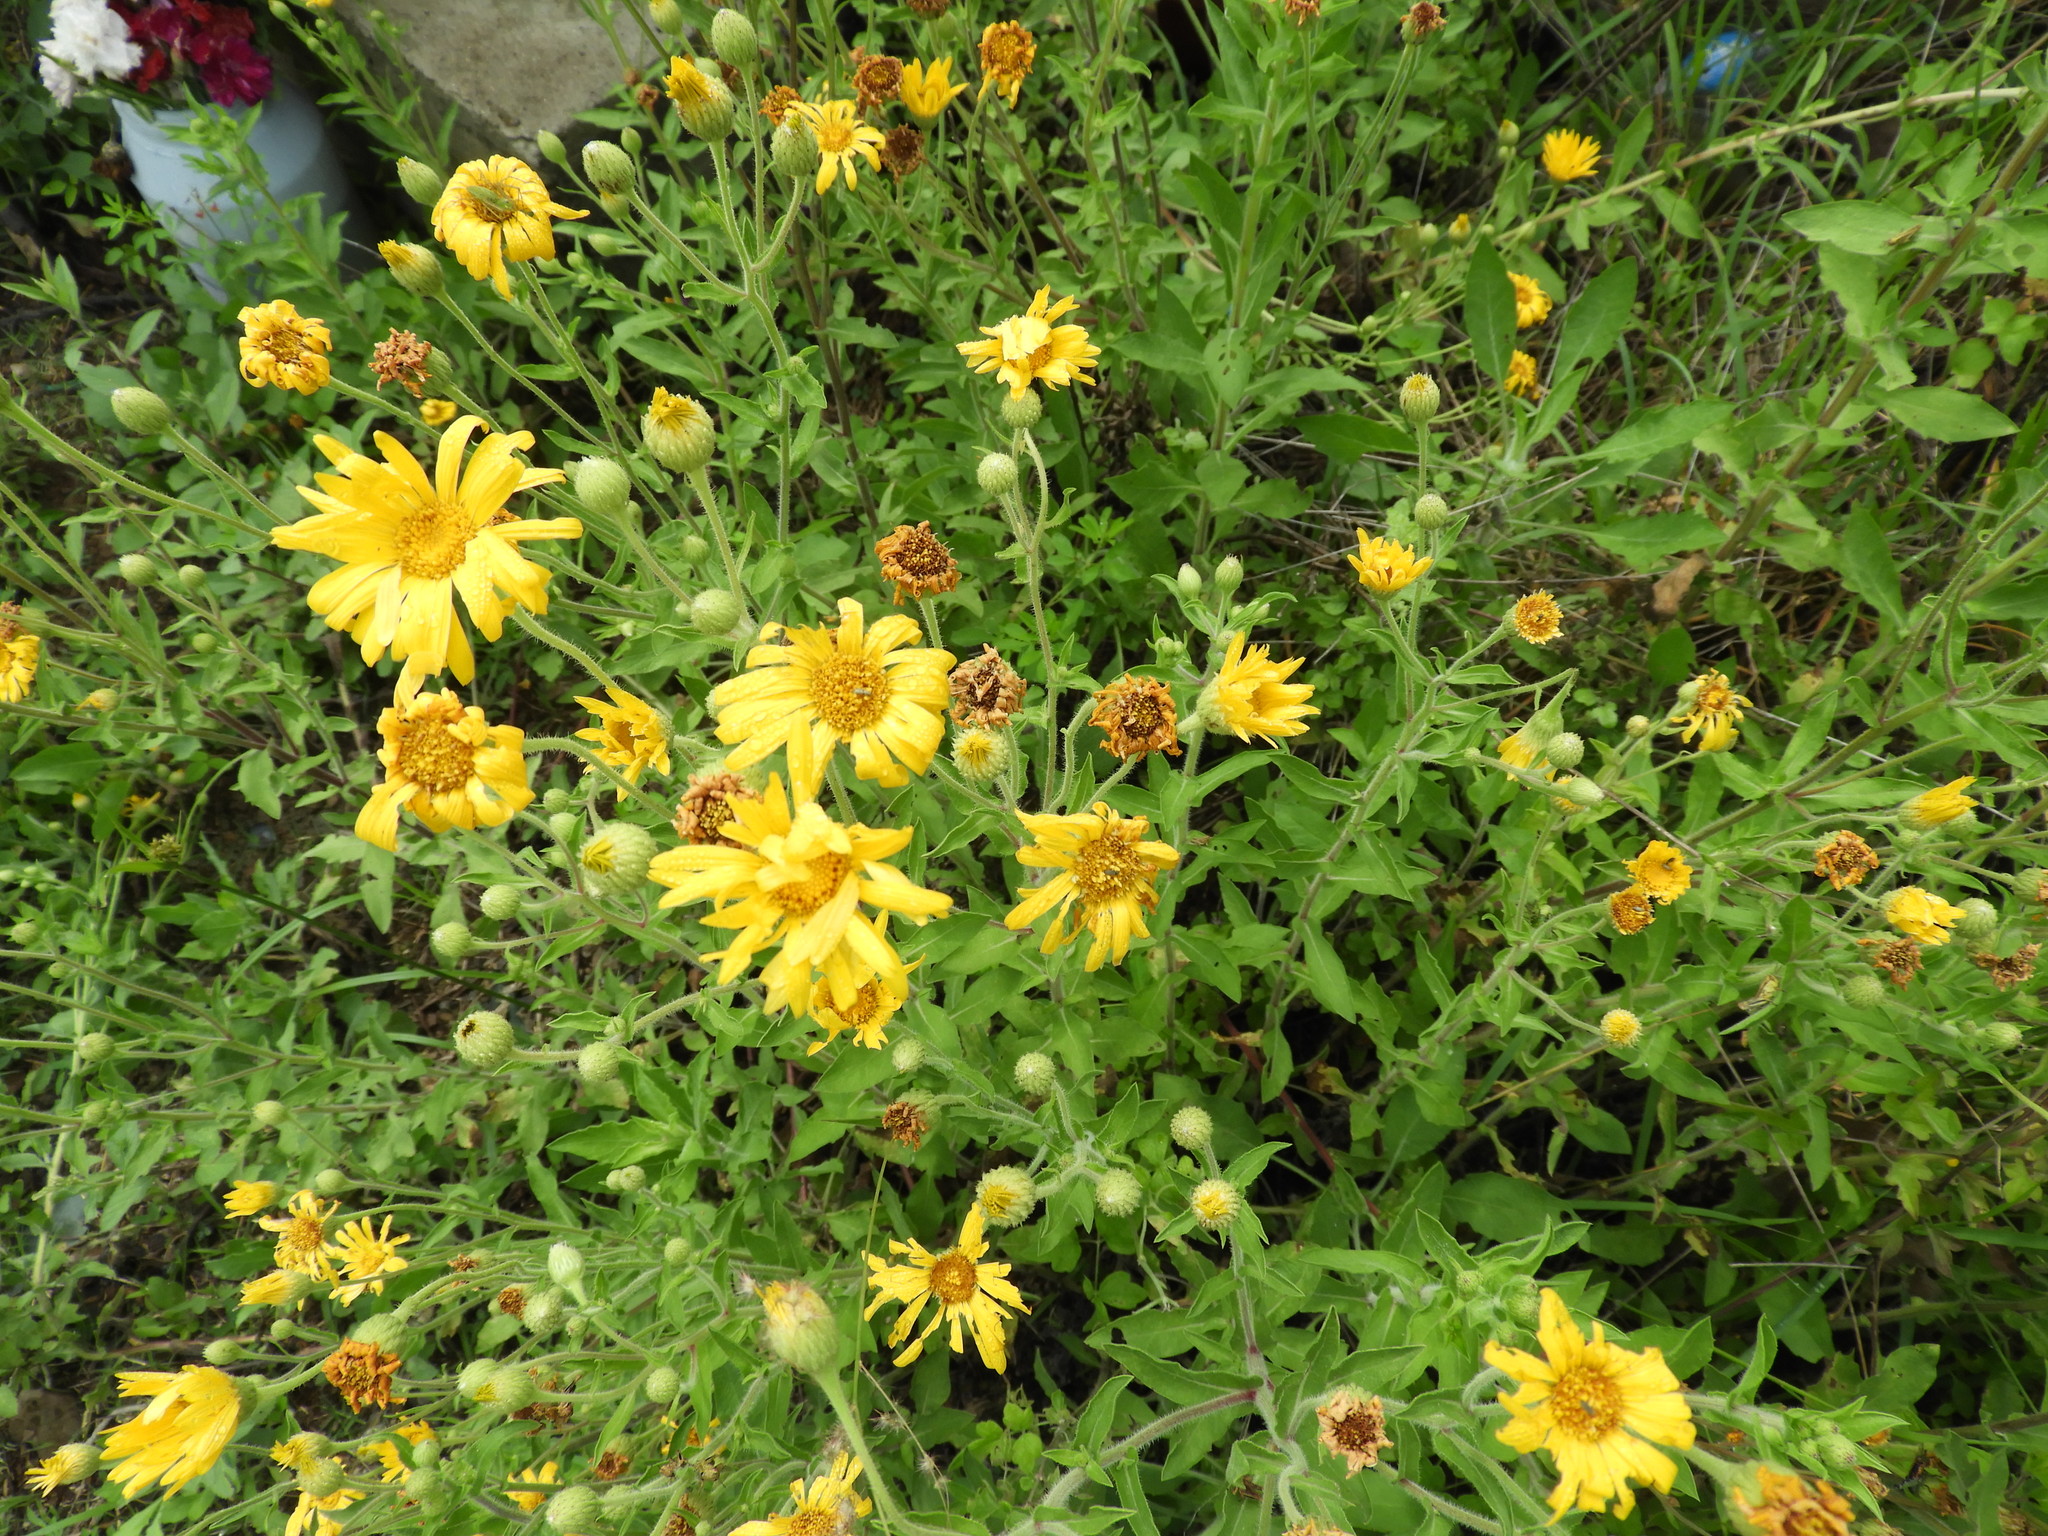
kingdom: Plantae
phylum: Tracheophyta
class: Magnoliopsida
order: Asterales
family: Asteraceae
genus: Heterotheca
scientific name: Heterotheca inuloides
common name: False arnica
